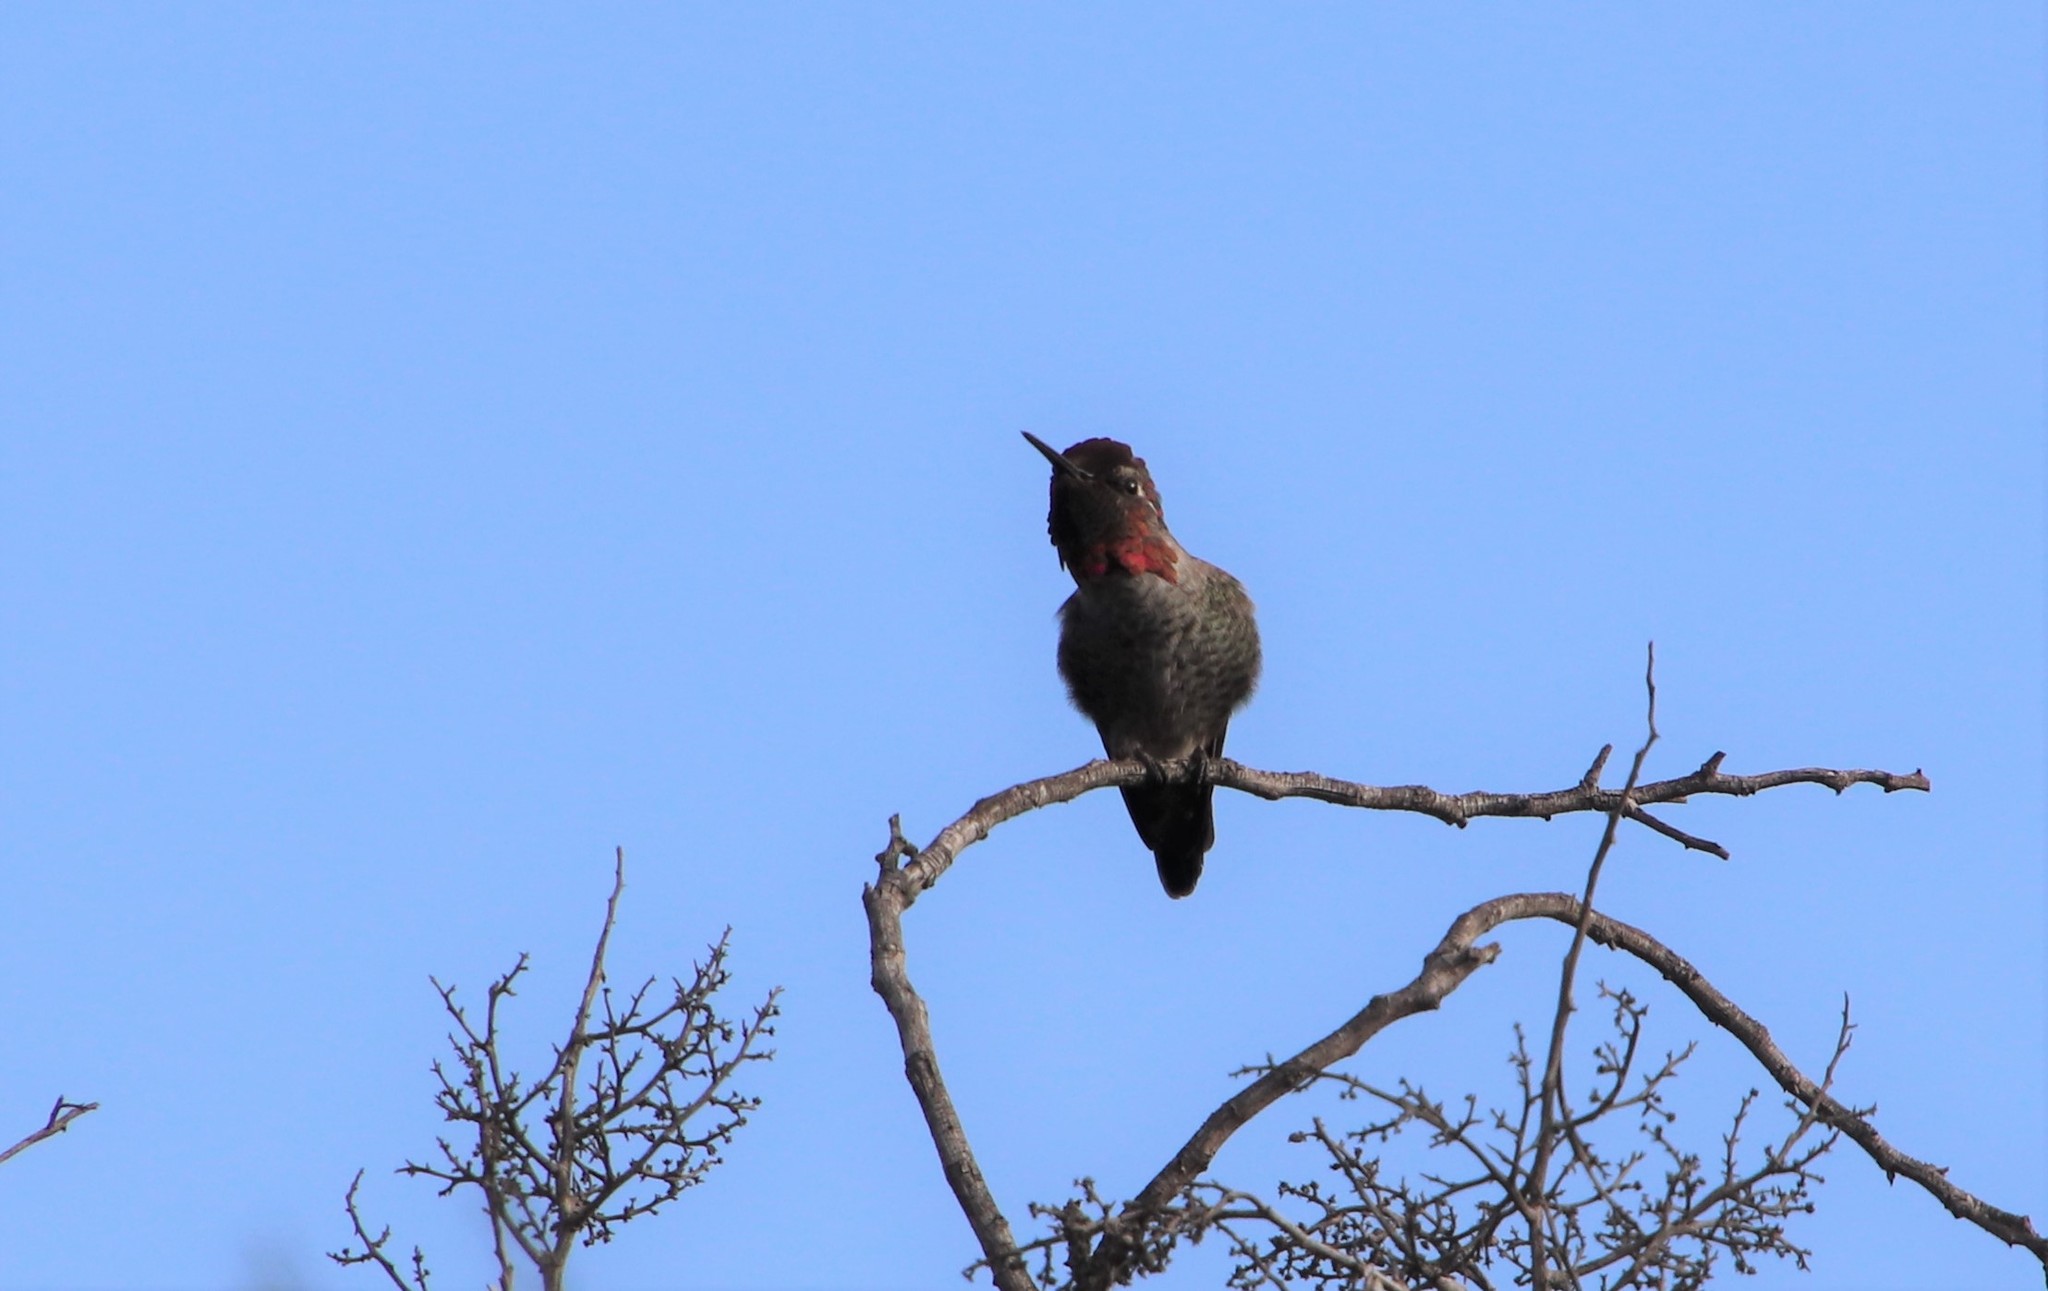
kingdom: Animalia
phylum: Chordata
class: Aves
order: Apodiformes
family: Trochilidae
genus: Calypte
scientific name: Calypte anna
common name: Anna's hummingbird
